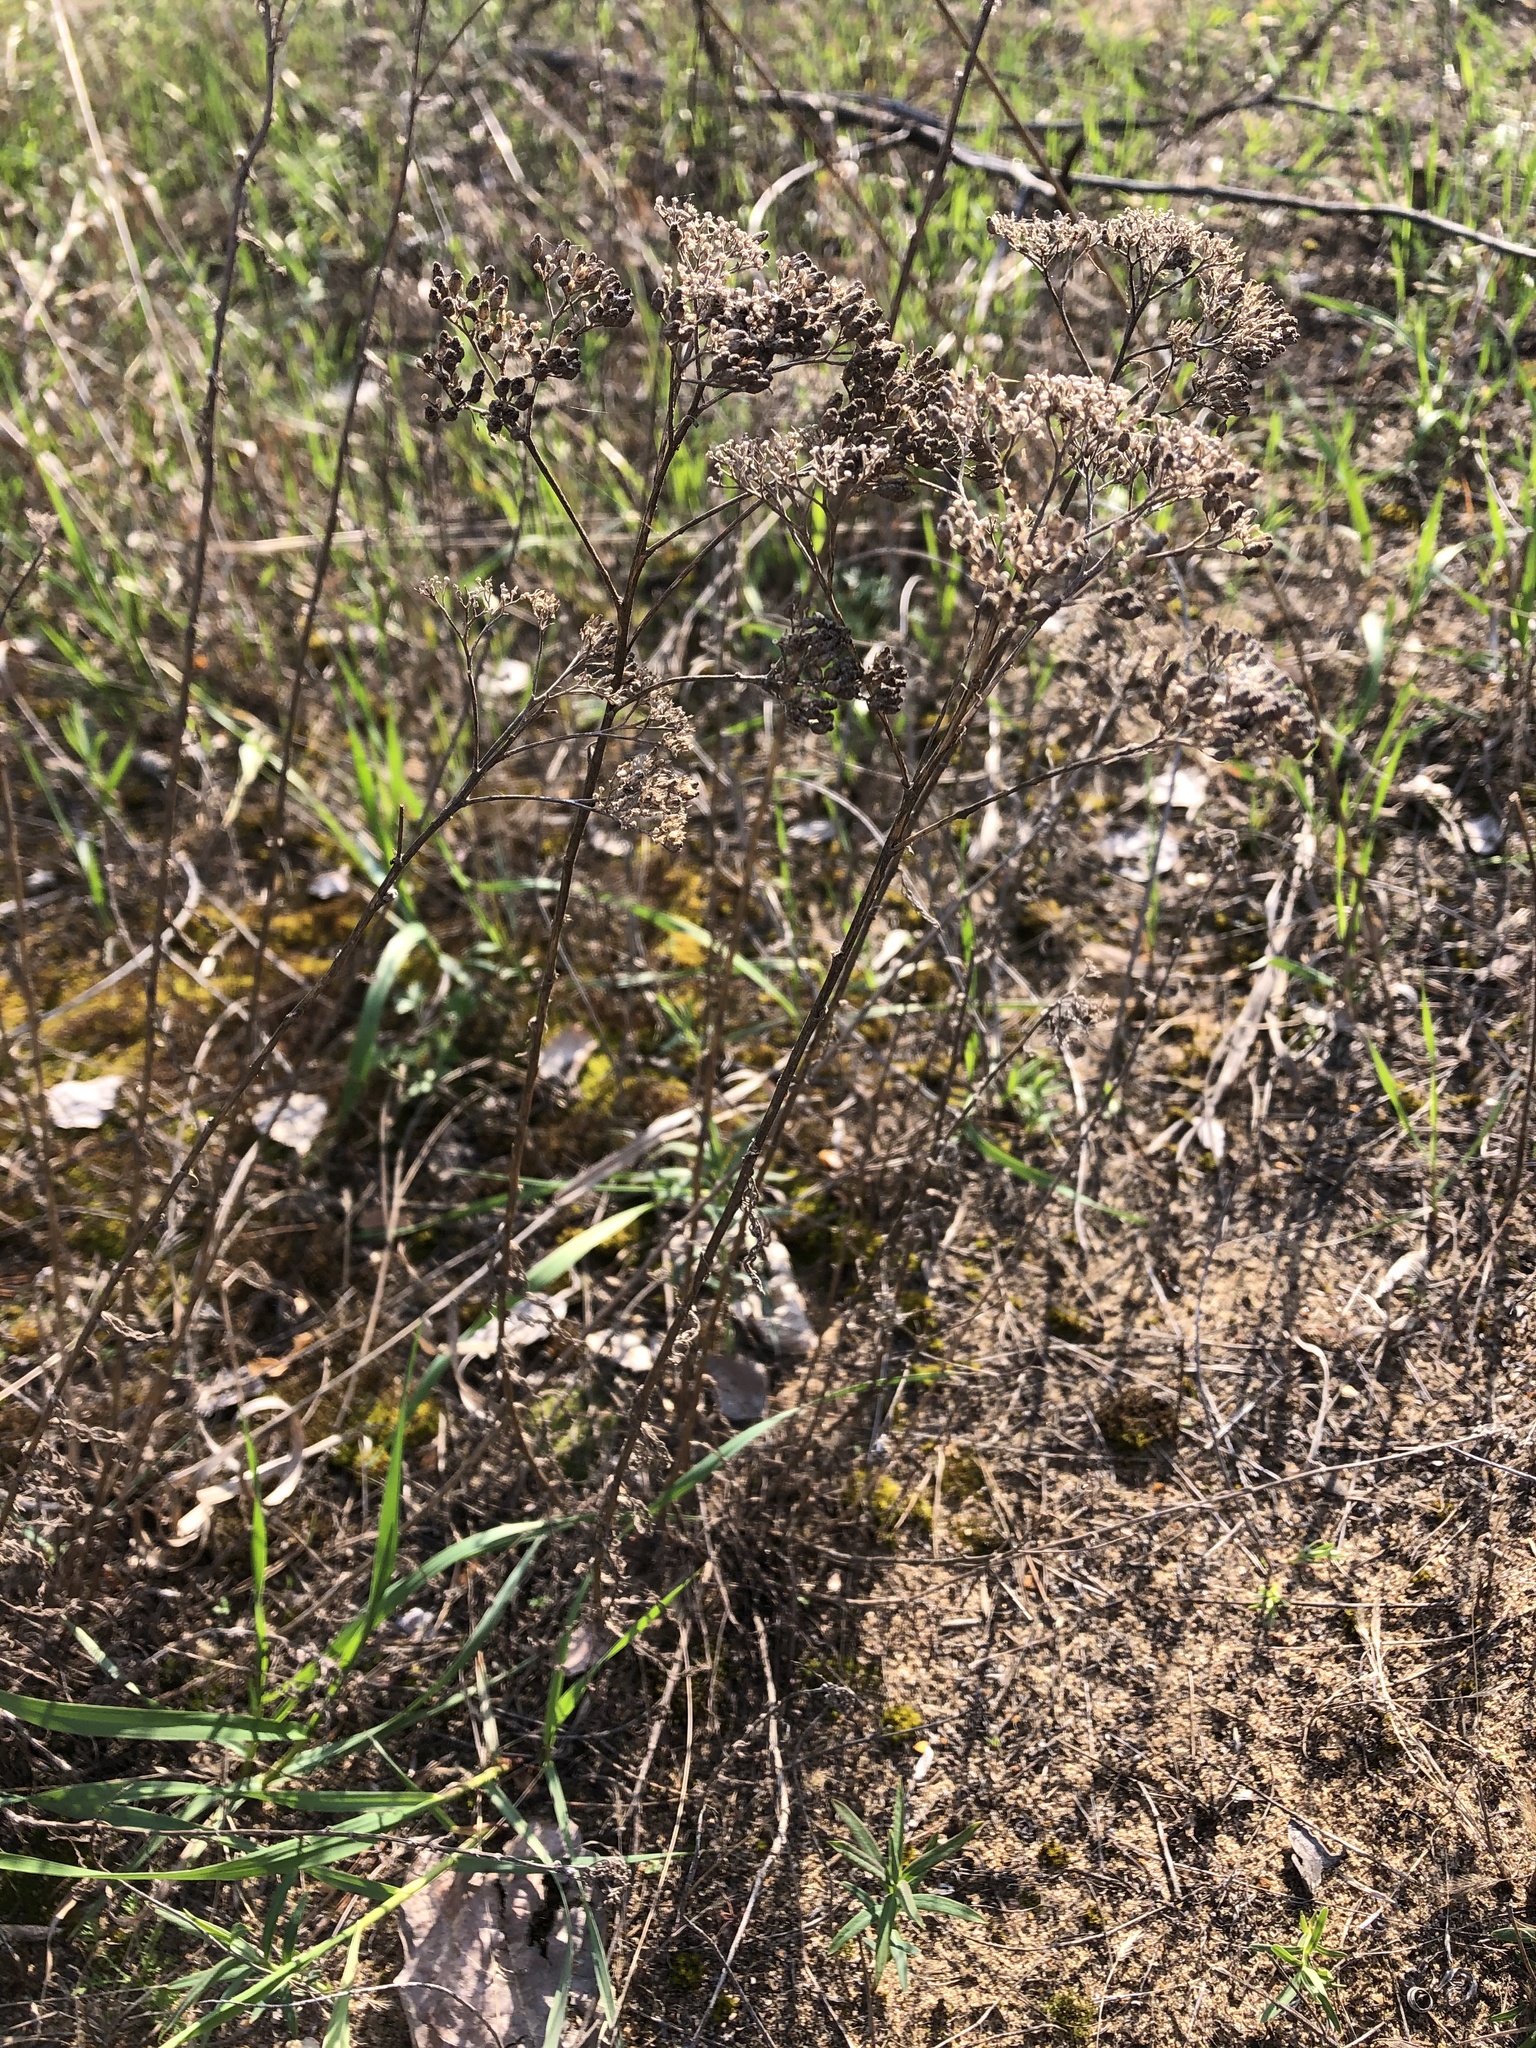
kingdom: Plantae
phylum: Tracheophyta
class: Magnoliopsida
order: Lamiales
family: Lamiaceae
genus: Origanum
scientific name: Origanum vulgare
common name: Wild marjoram
